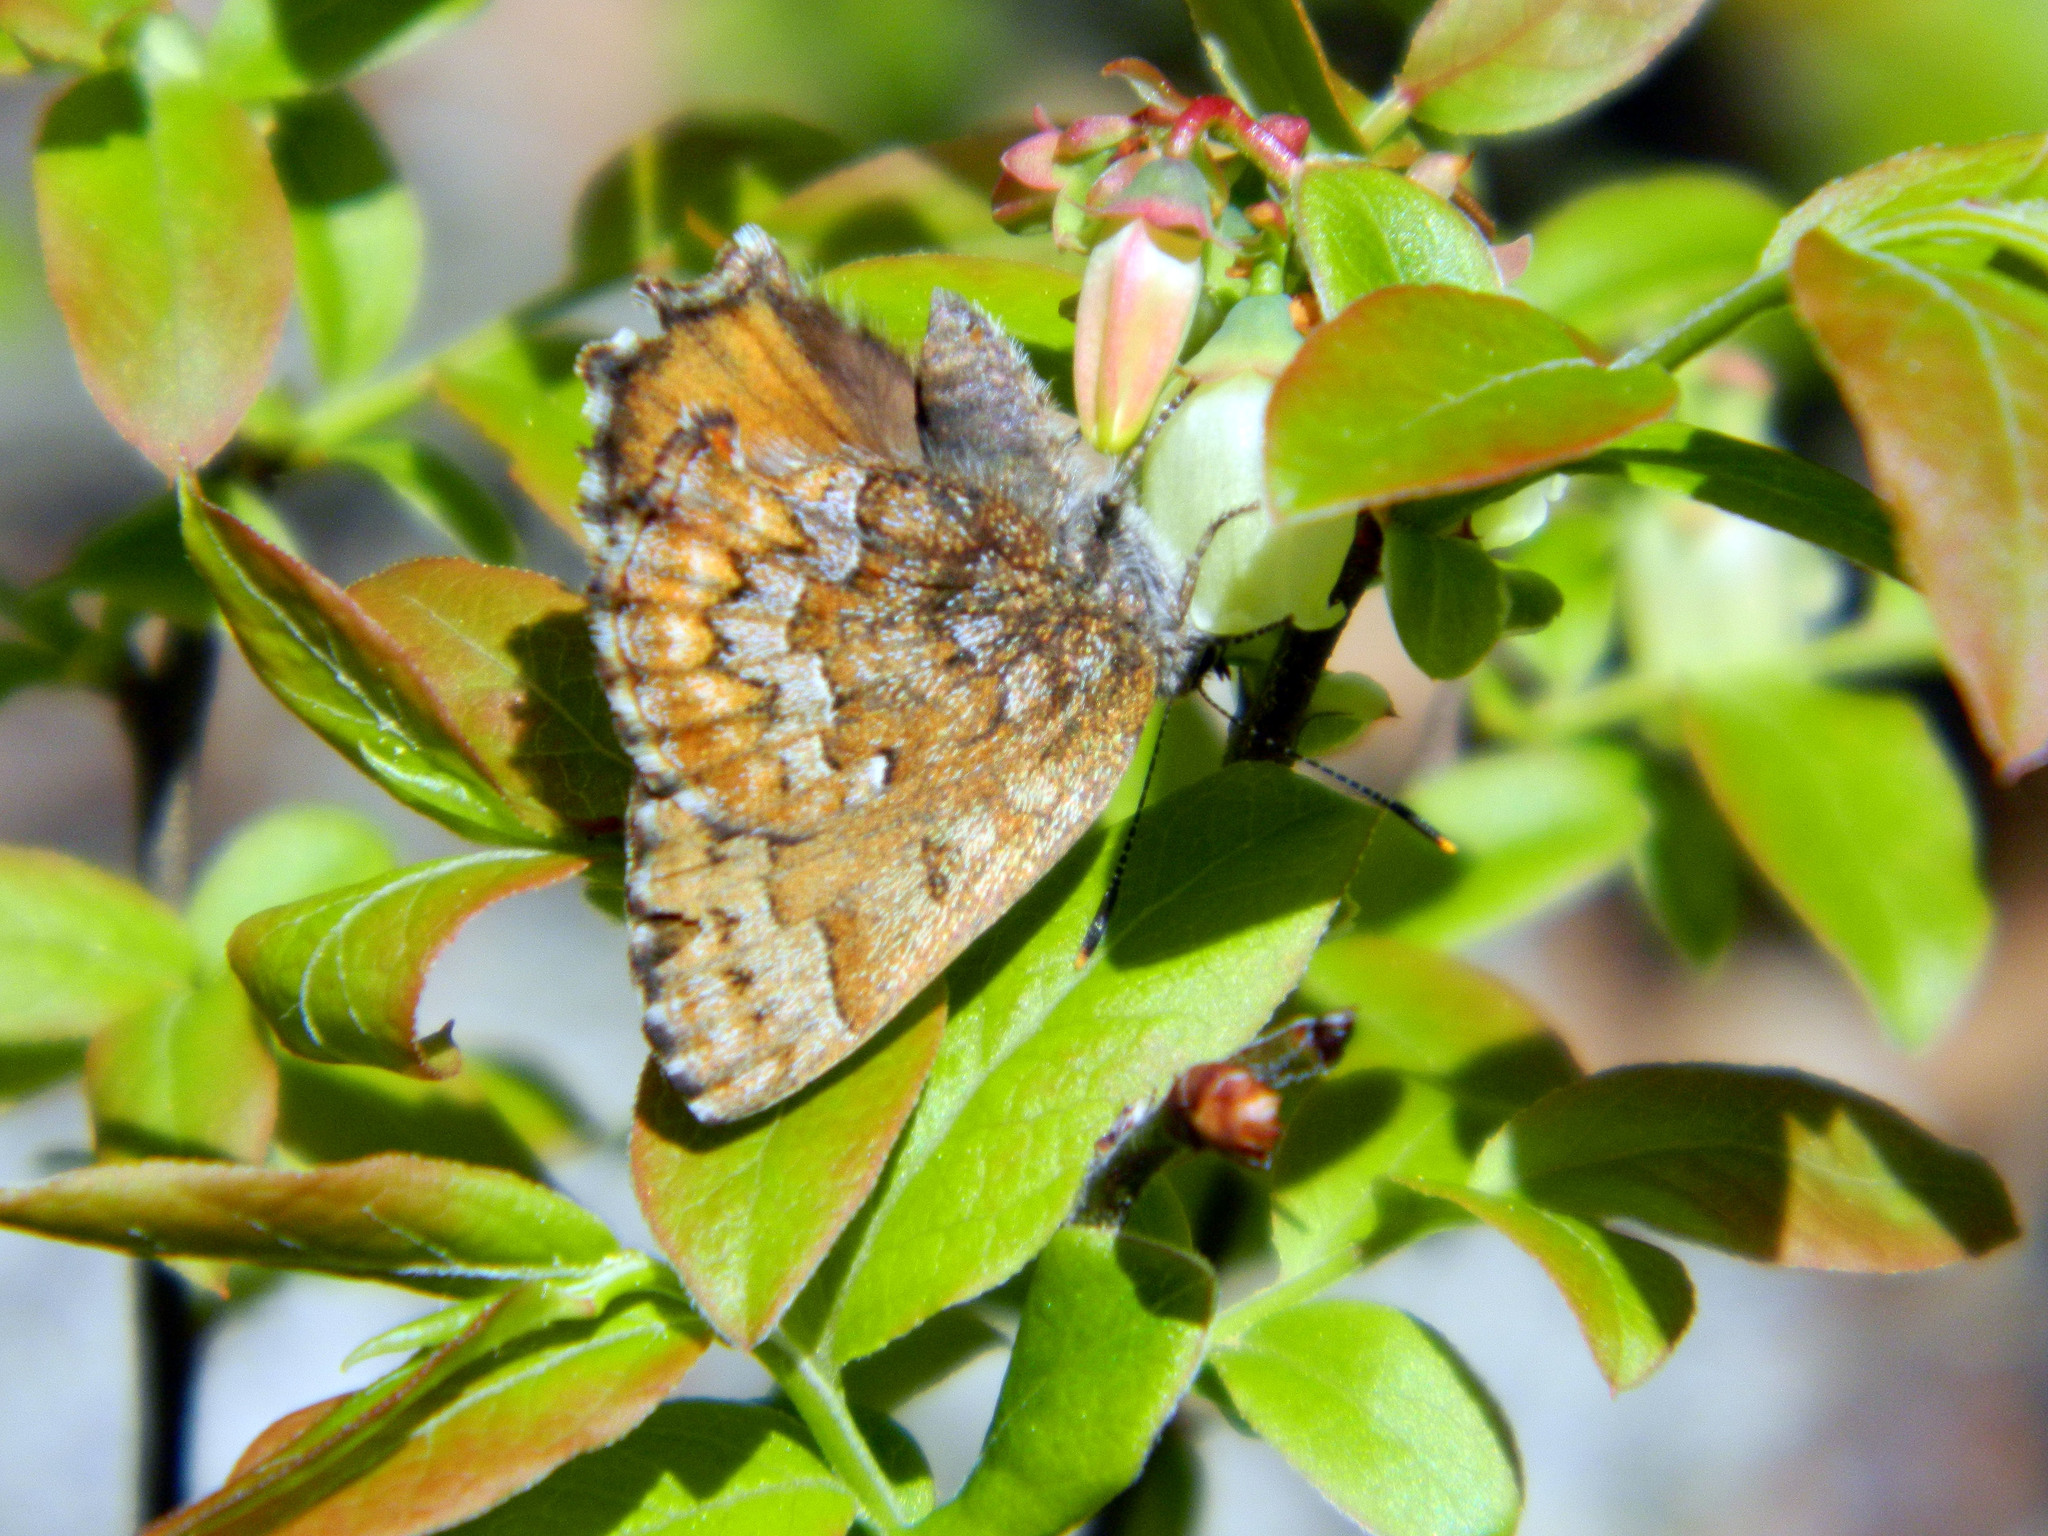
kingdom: Animalia
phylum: Arthropoda
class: Insecta
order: Lepidoptera
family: Lycaenidae
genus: Incisalia
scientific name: Incisalia niphon
